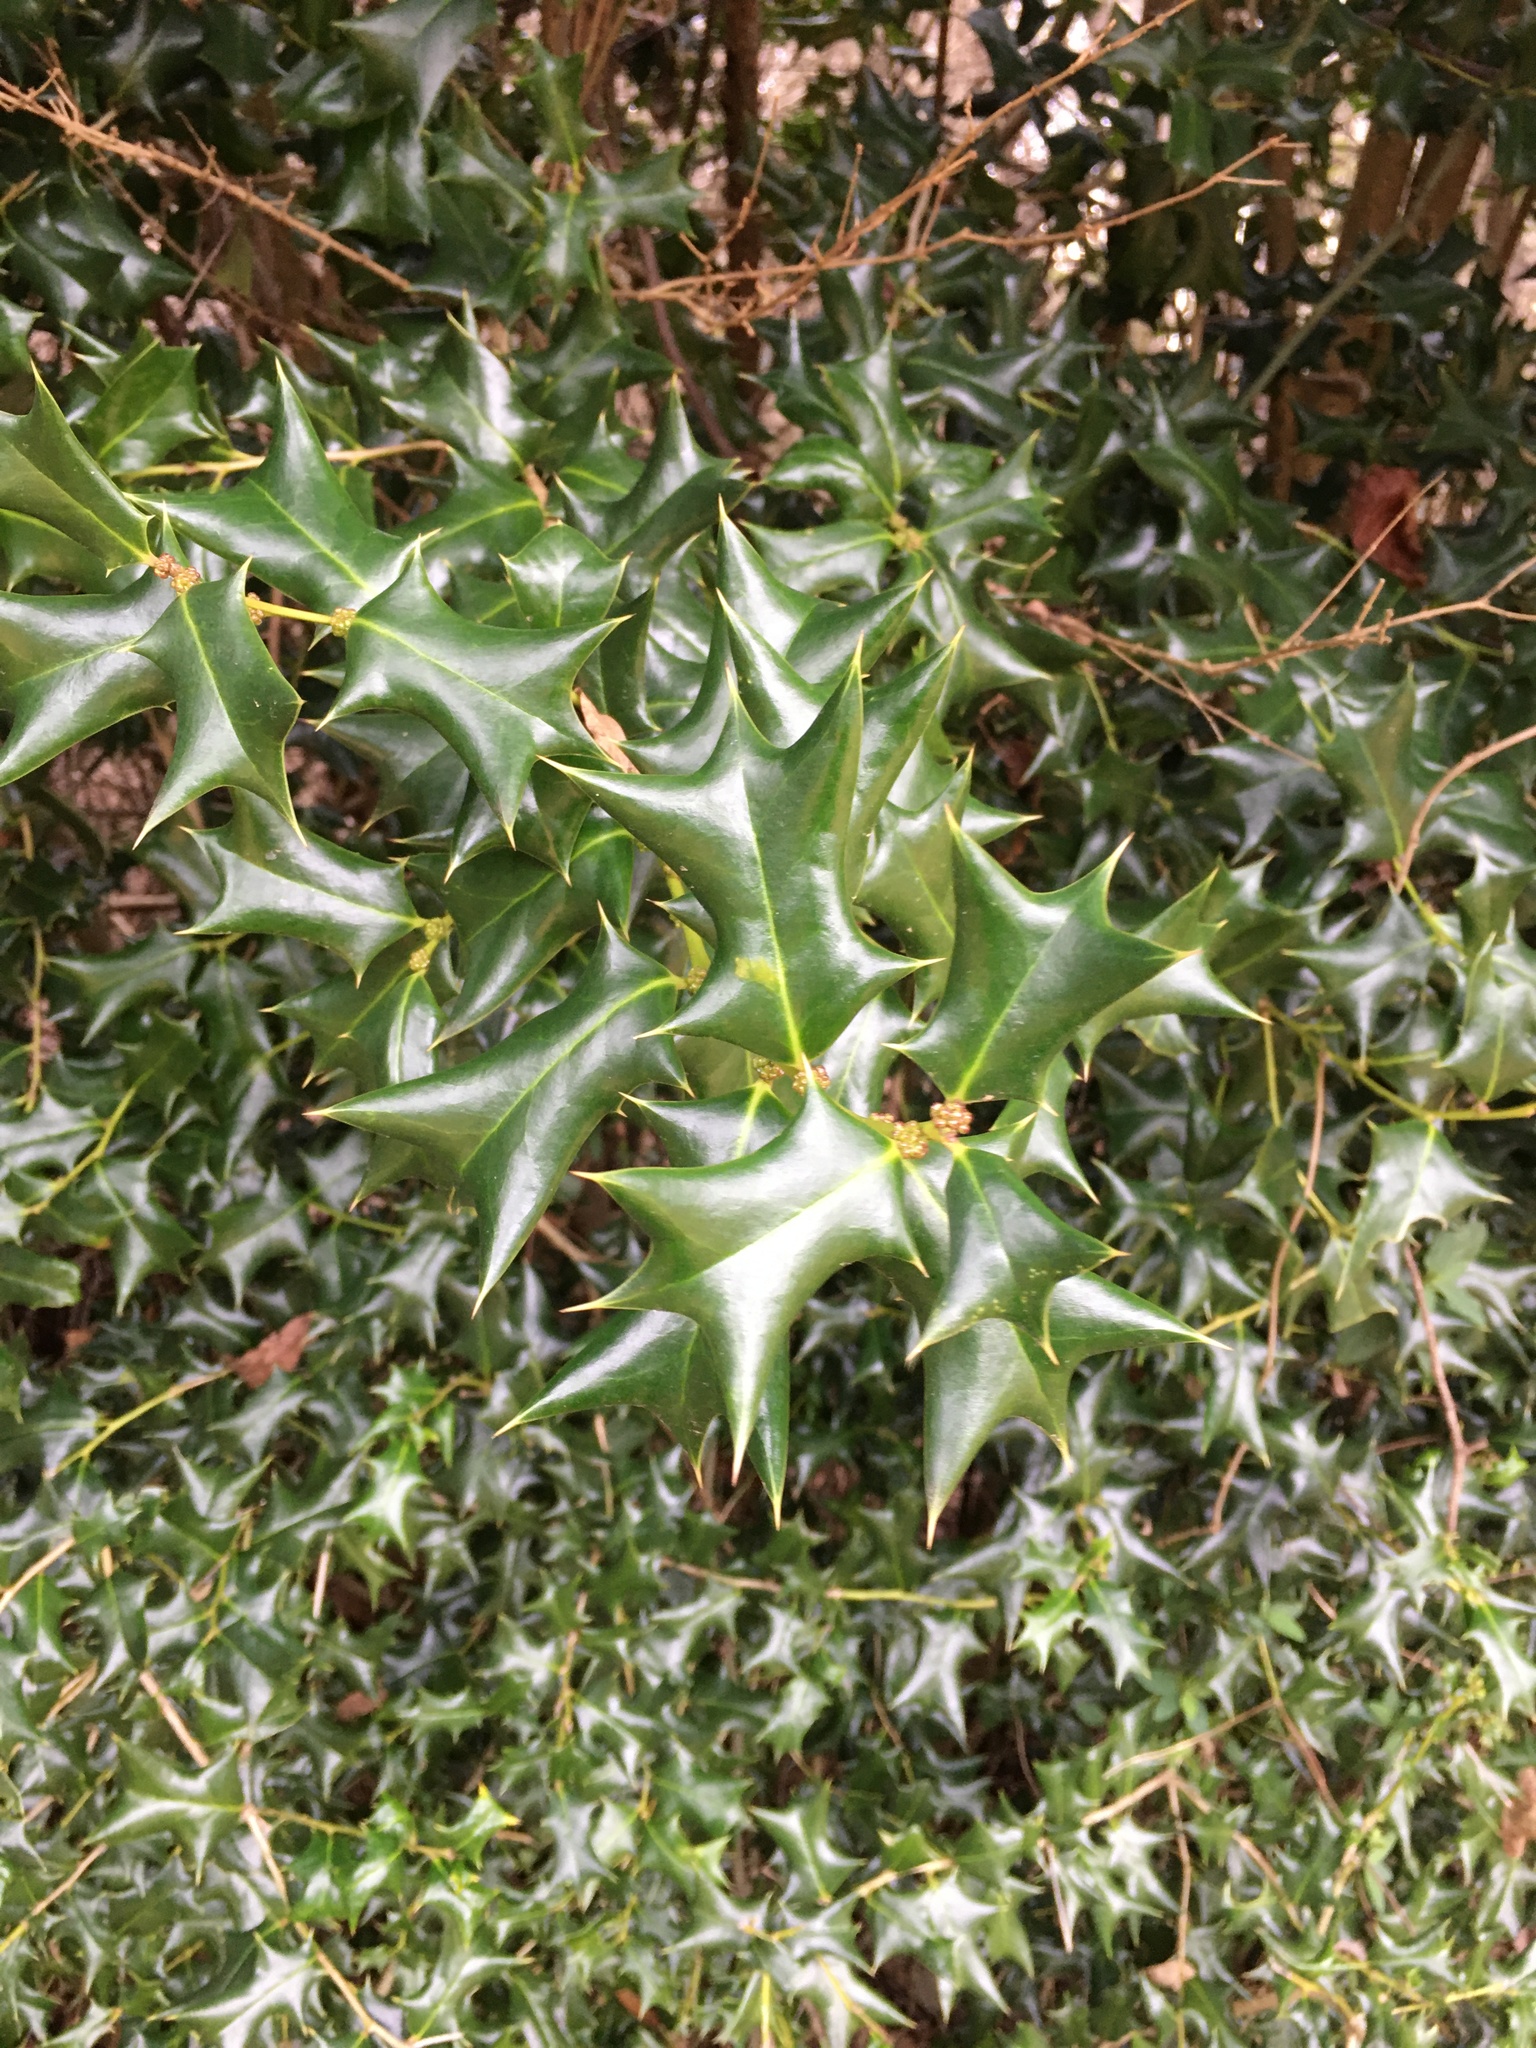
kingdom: Plantae
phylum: Tracheophyta
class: Magnoliopsida
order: Aquifoliales
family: Aquifoliaceae
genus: Ilex
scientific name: Ilex cornuta
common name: Chinese holly
